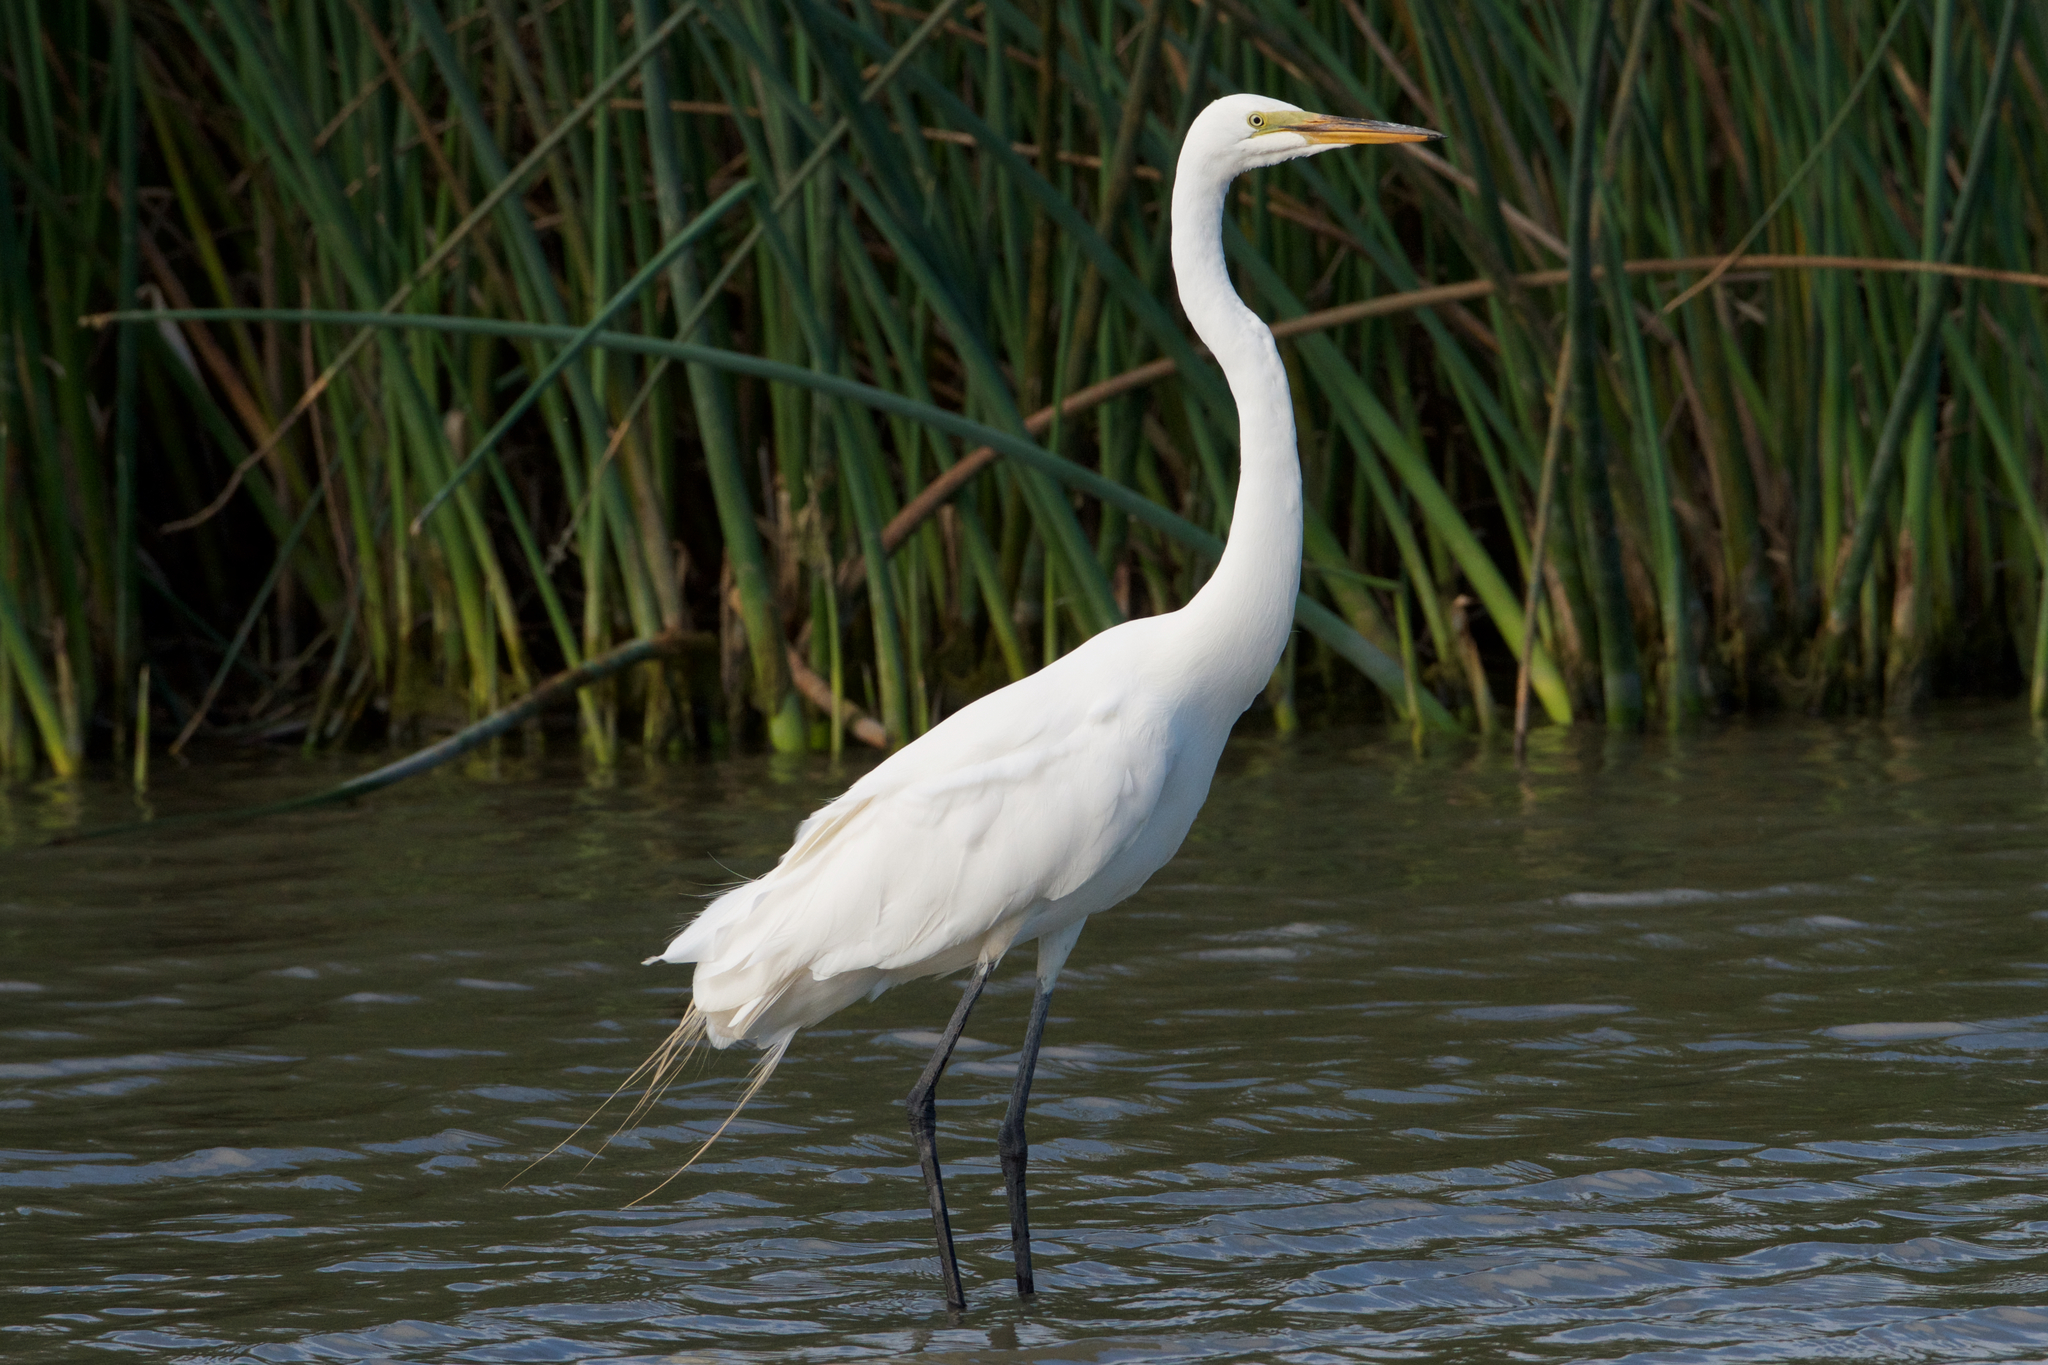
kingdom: Animalia
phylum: Chordata
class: Aves
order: Pelecaniformes
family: Ardeidae
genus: Ardea
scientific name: Ardea alba
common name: Great egret
